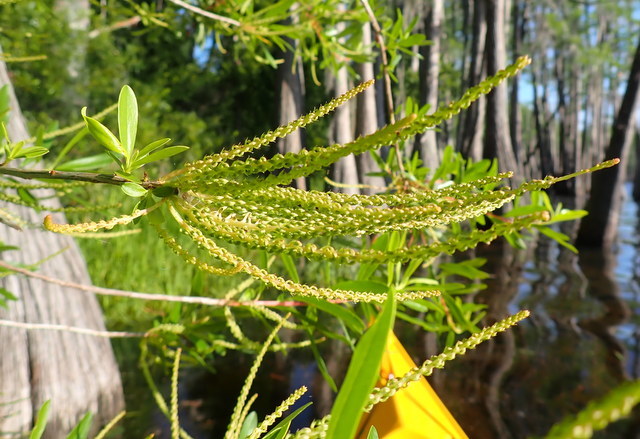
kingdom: Plantae
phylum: Tracheophyta
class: Magnoliopsida
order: Ericales
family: Cyrillaceae
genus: Cyrilla
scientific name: Cyrilla racemiflora
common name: Black titi
